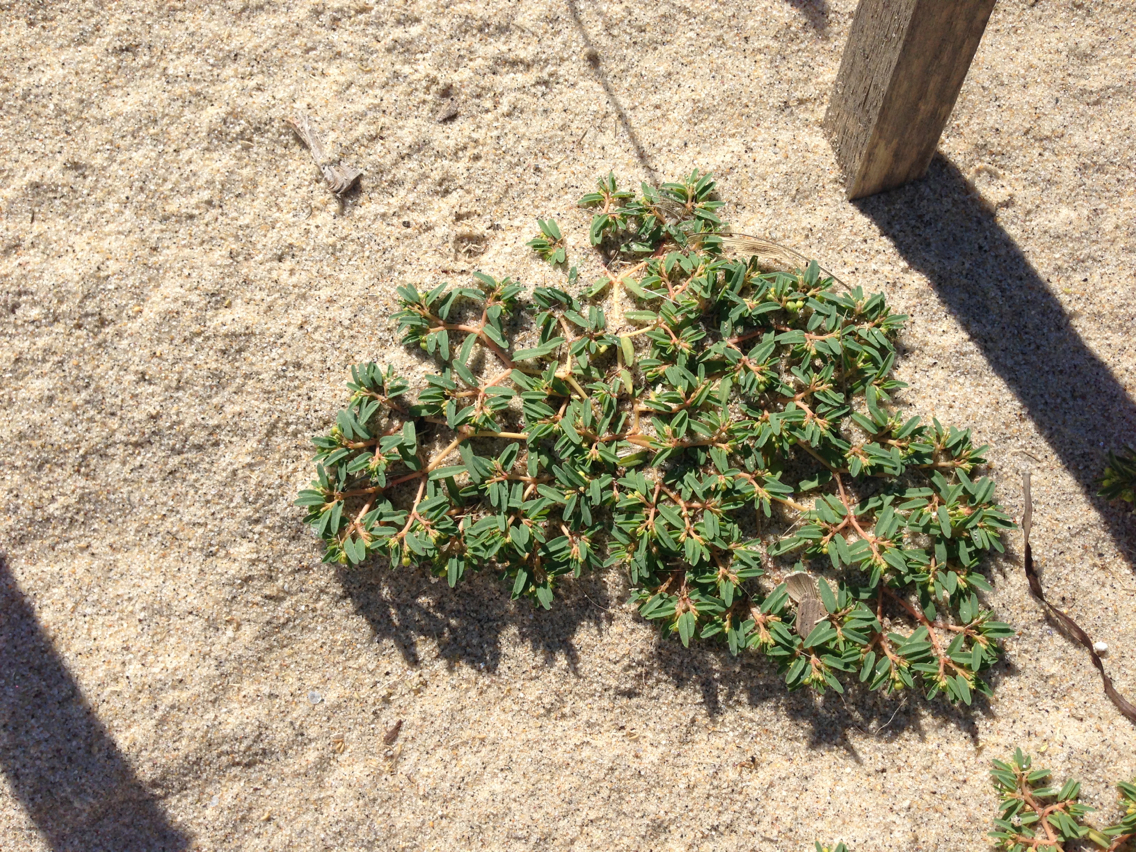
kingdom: Plantae
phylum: Tracheophyta
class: Magnoliopsida
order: Malpighiales
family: Euphorbiaceae
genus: Euphorbia
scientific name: Euphorbia polygonifolia
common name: Knotweed spurge
